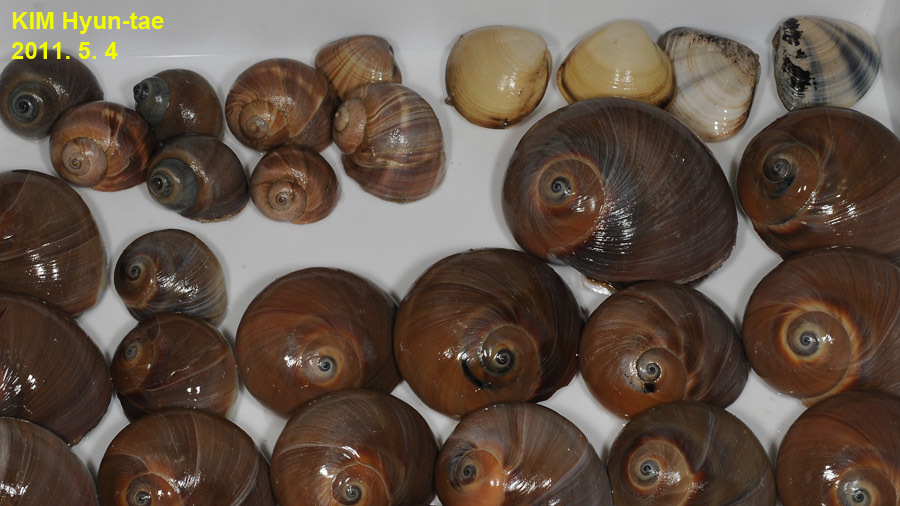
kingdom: Animalia
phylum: Mollusca
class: Gastropoda
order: Littorinimorpha
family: Naticidae
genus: Neverita
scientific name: Neverita didyma
